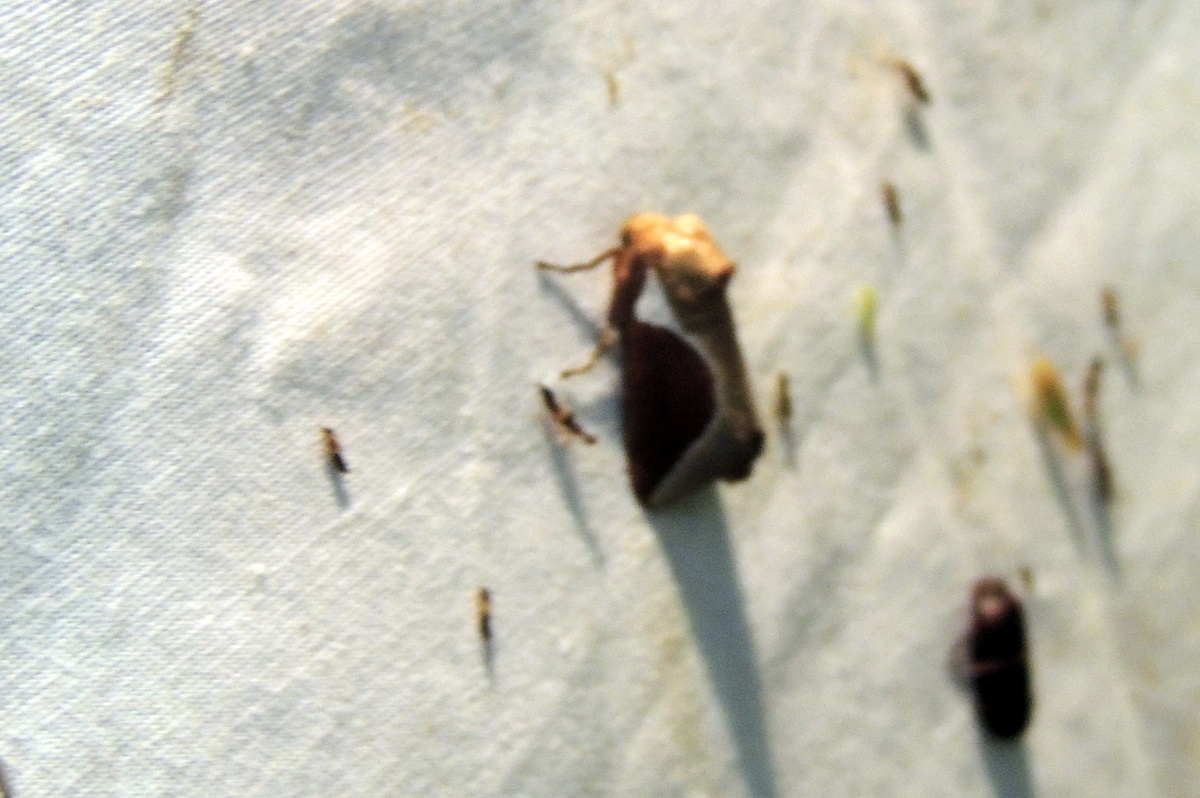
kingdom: Animalia
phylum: Arthropoda
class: Insecta
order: Lepidoptera
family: Limacodidae
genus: Prolimacodes
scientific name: Prolimacodes badia
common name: Skiff moth
